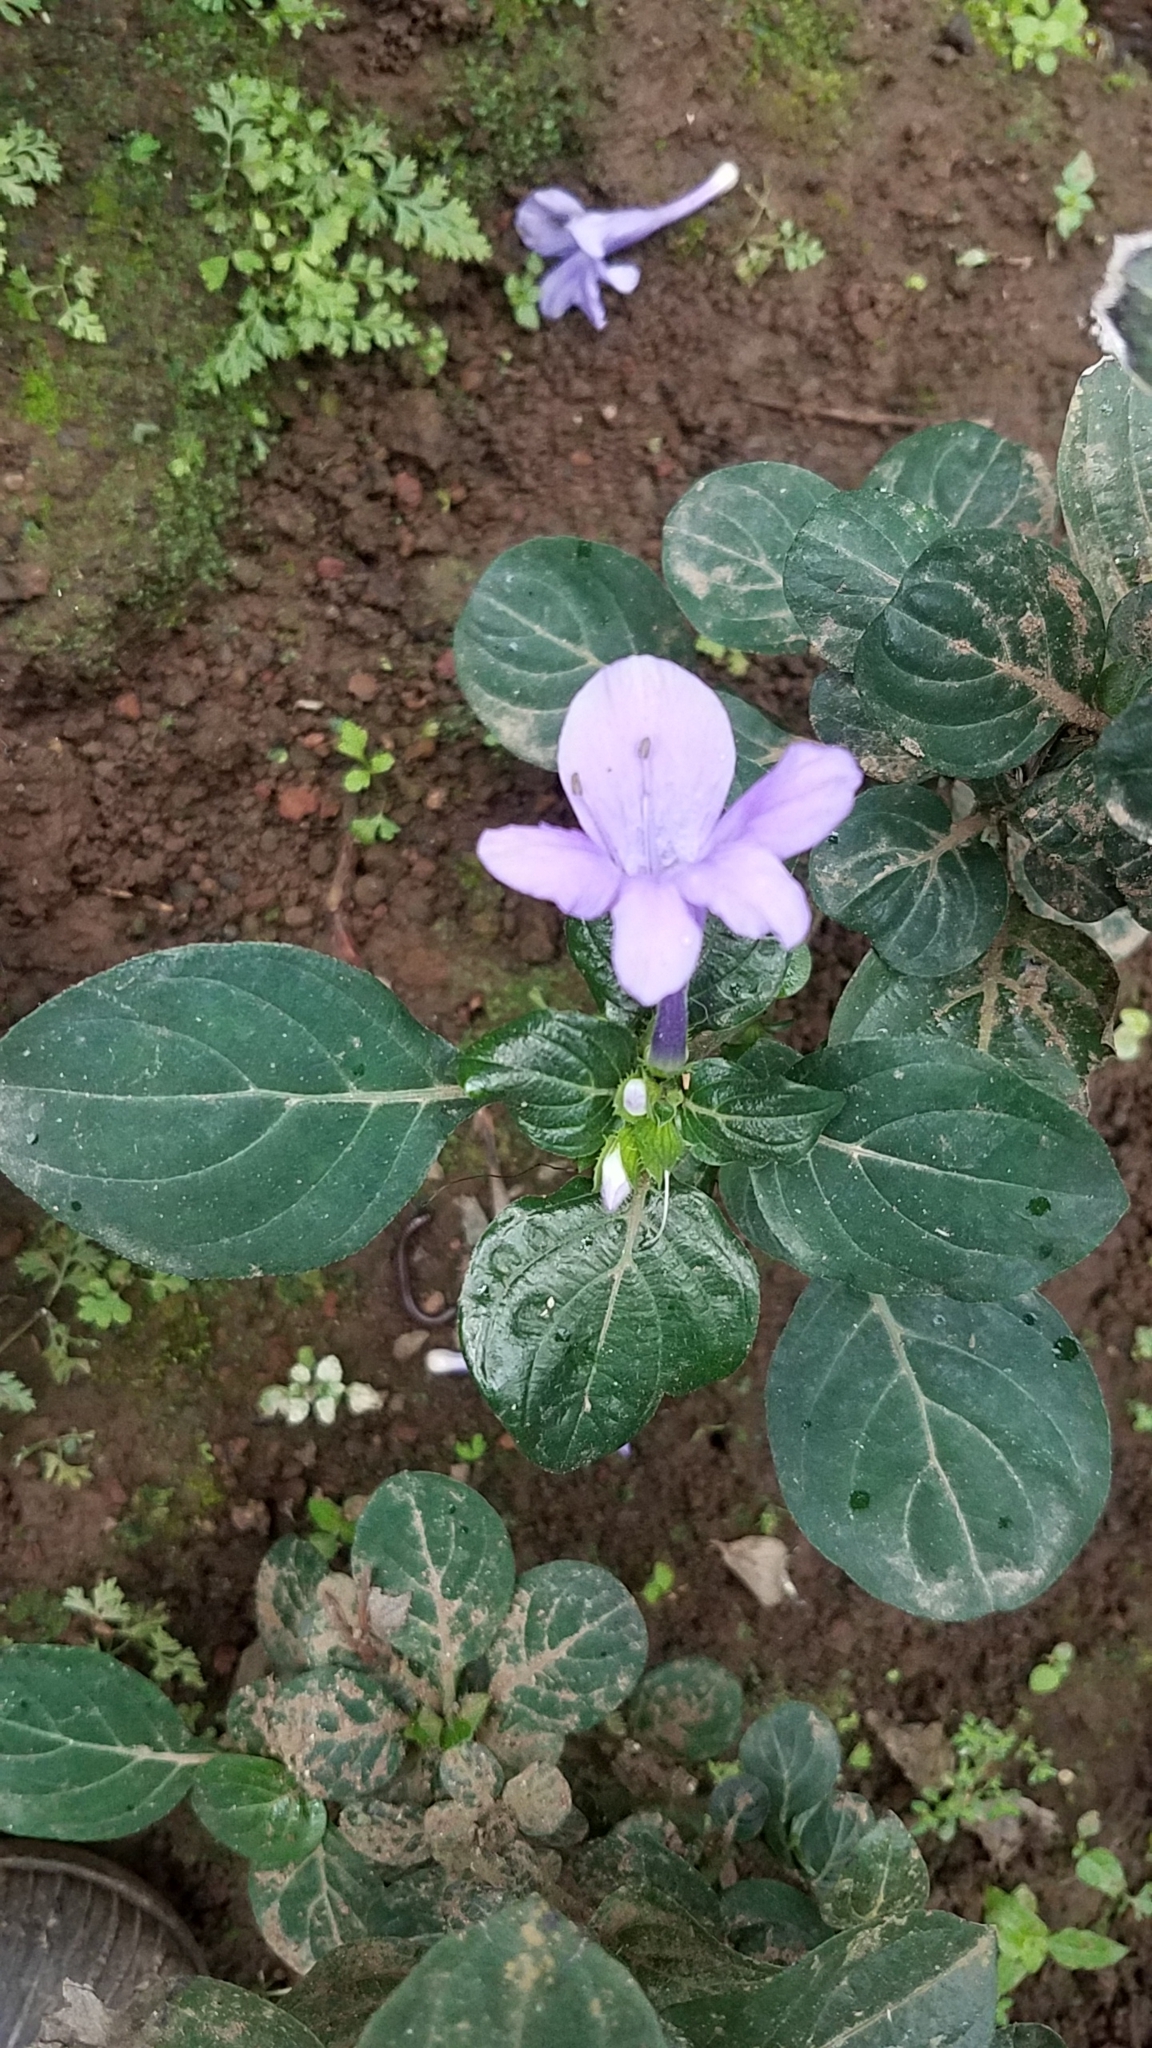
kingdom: Plantae
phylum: Tracheophyta
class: Magnoliopsida
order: Lamiales
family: Acanthaceae
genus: Barleria
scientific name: Barleria cristata
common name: Crested philippine violet
